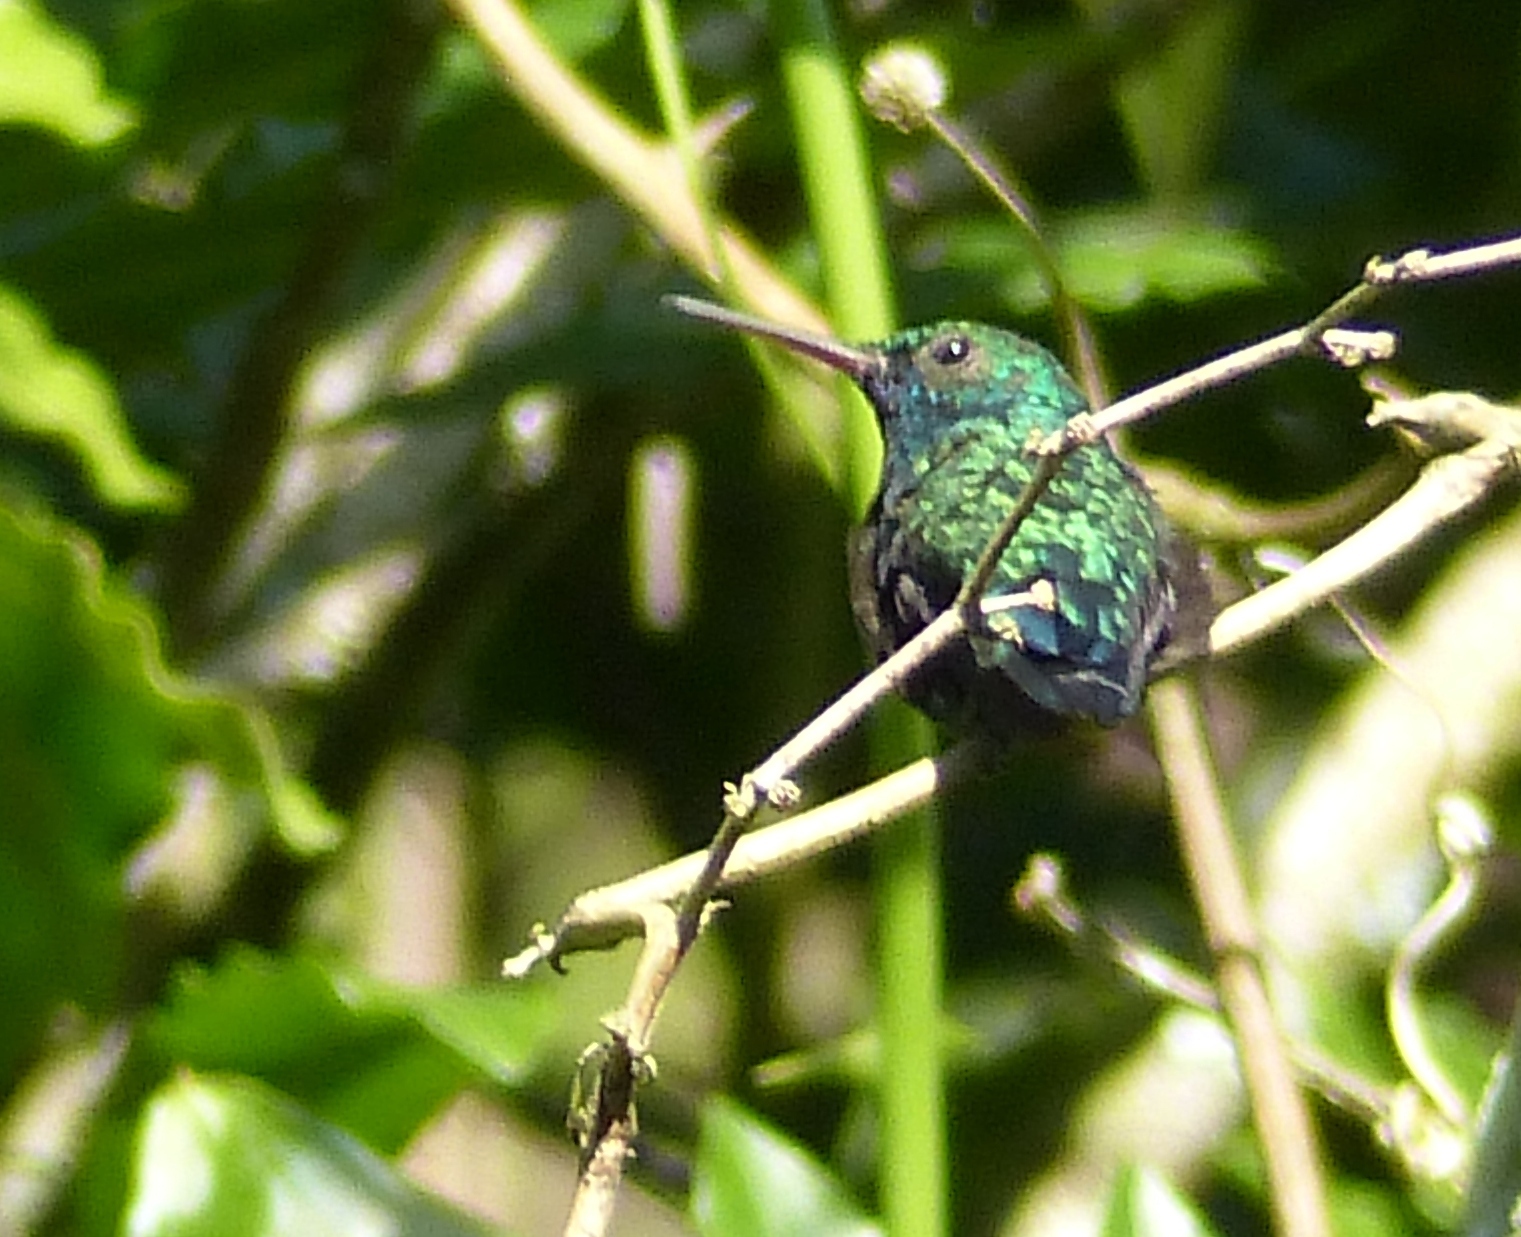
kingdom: Animalia
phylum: Chordata
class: Aves
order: Apodiformes
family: Trochilidae
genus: Chlorestes
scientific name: Chlorestes notata
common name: Blue-chinned sapphire
